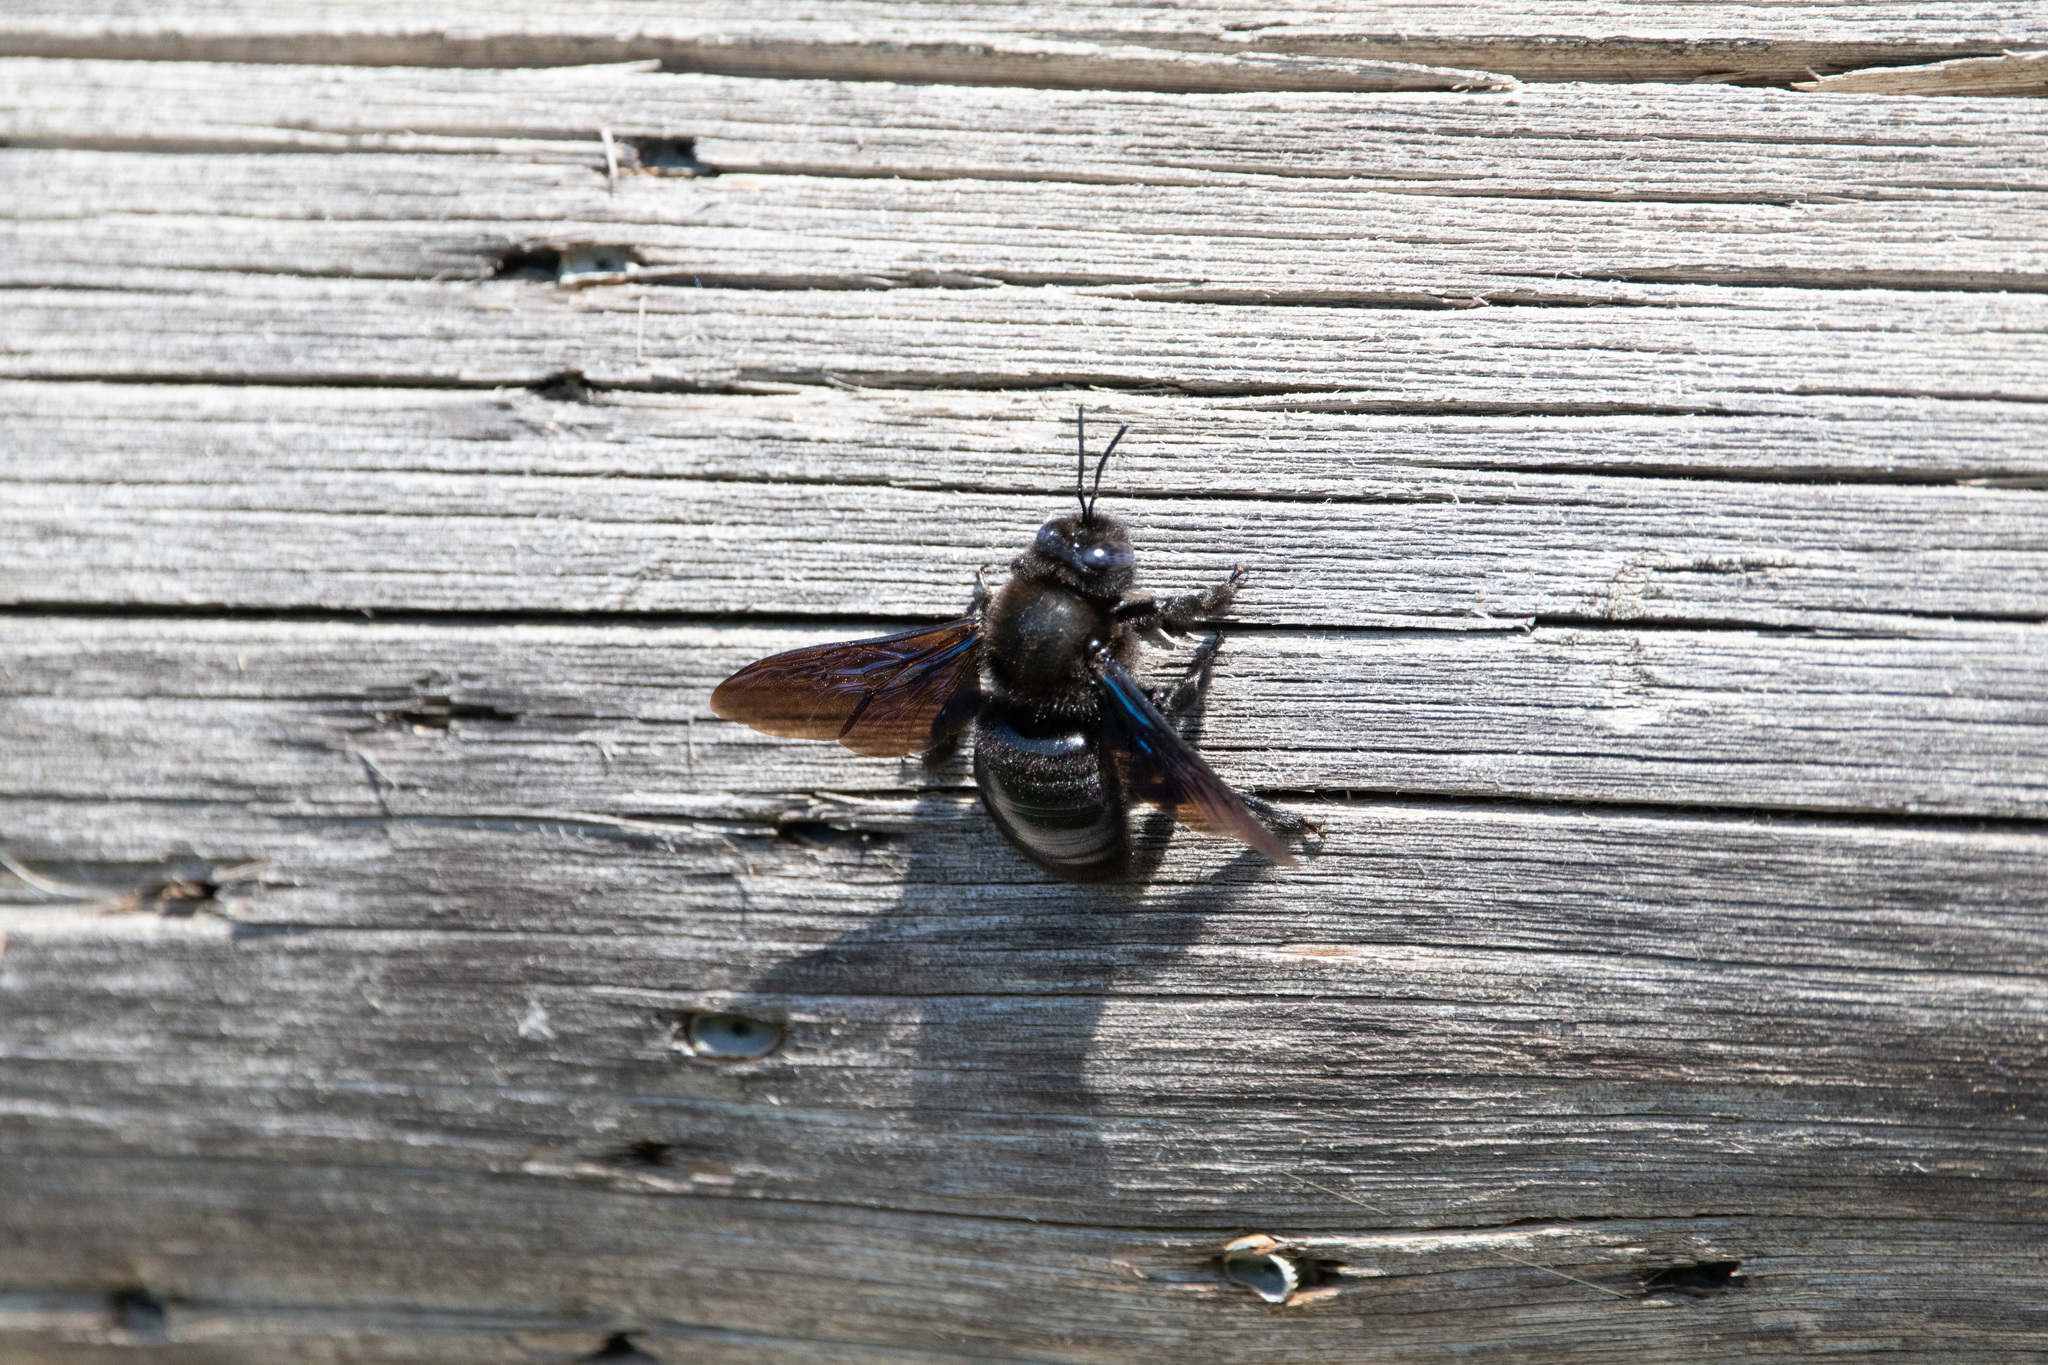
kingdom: Animalia
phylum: Arthropoda
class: Insecta
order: Hymenoptera
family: Apidae
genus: Xylocopa
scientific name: Xylocopa valga
